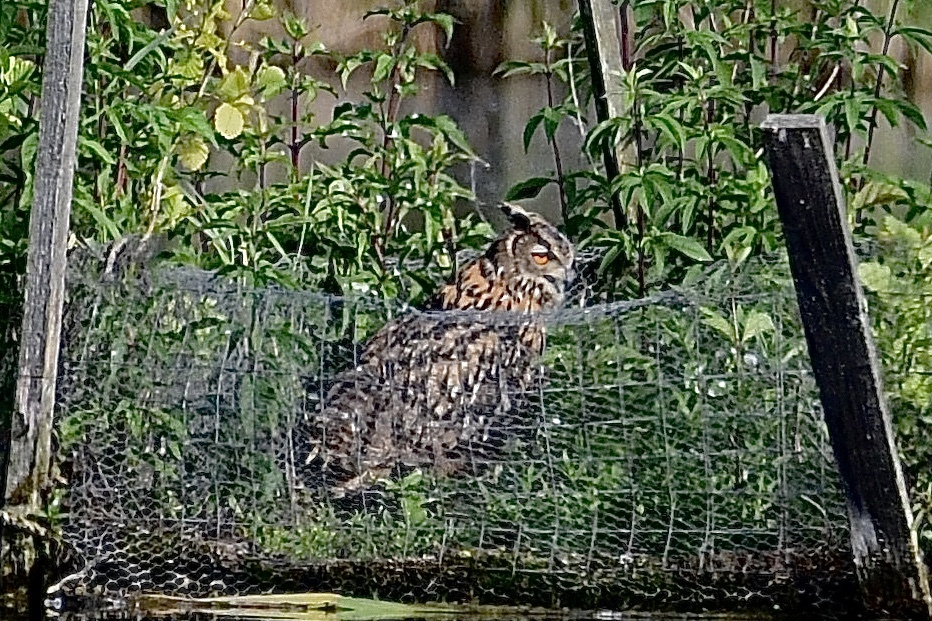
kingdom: Animalia
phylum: Chordata
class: Aves
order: Strigiformes
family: Strigidae
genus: Bubo
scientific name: Bubo bubo
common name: Eurasian eagle-owl
